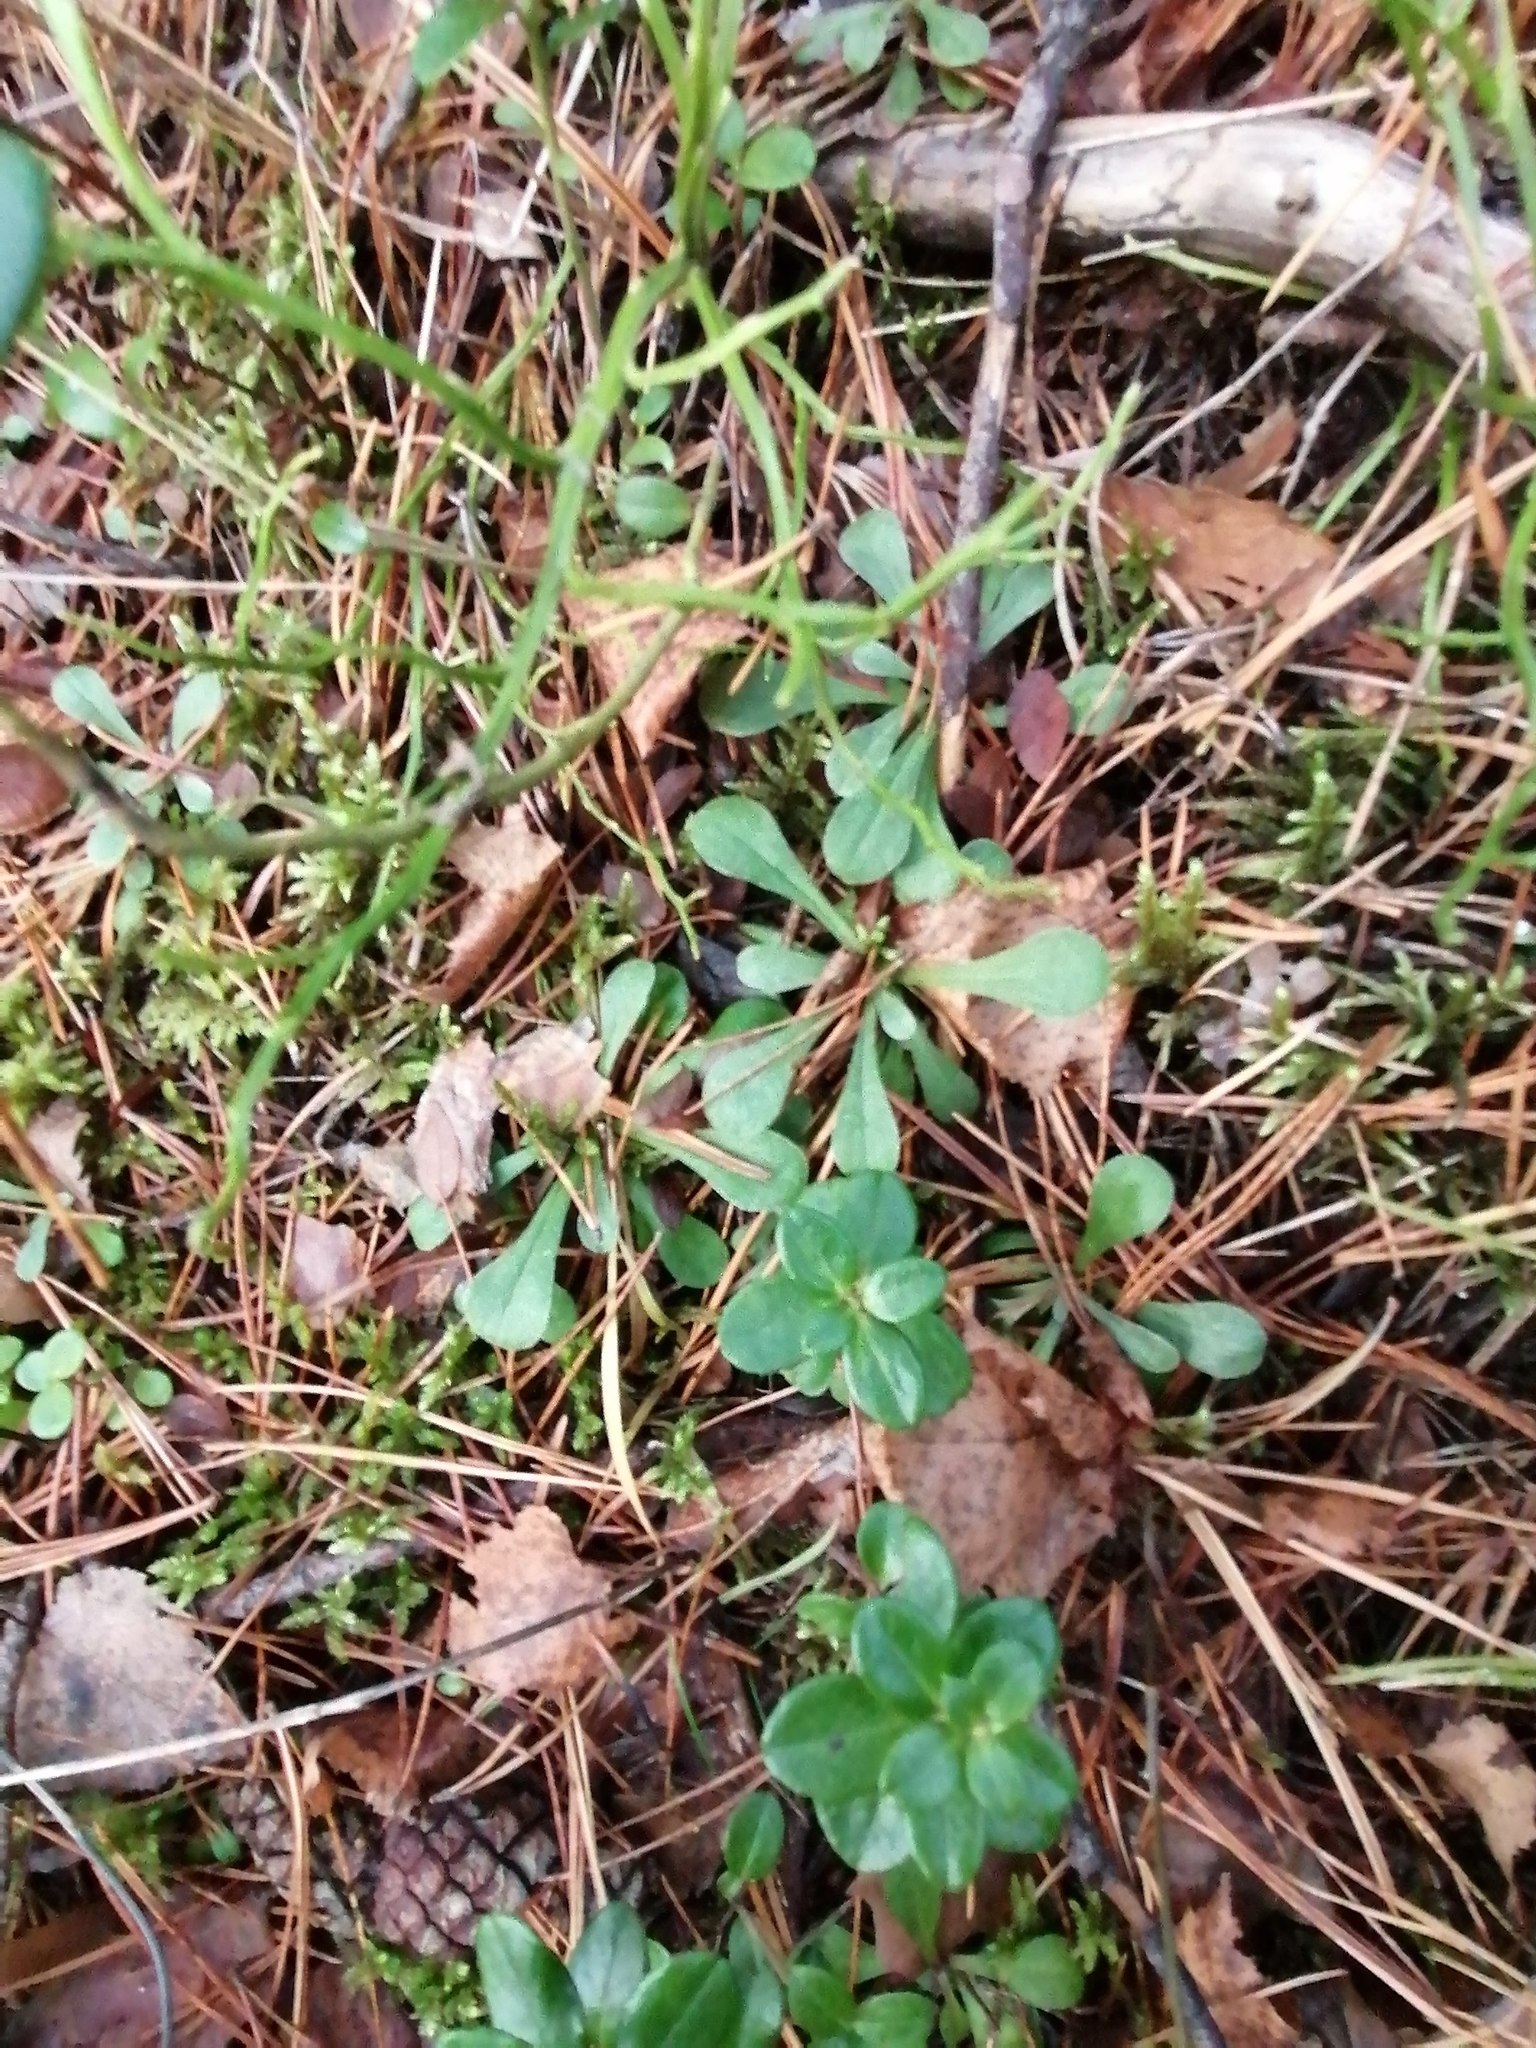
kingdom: Plantae
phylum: Tracheophyta
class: Magnoliopsida
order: Asterales
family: Asteraceae
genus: Antennaria
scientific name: Antennaria dioica
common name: Mountain everlasting
